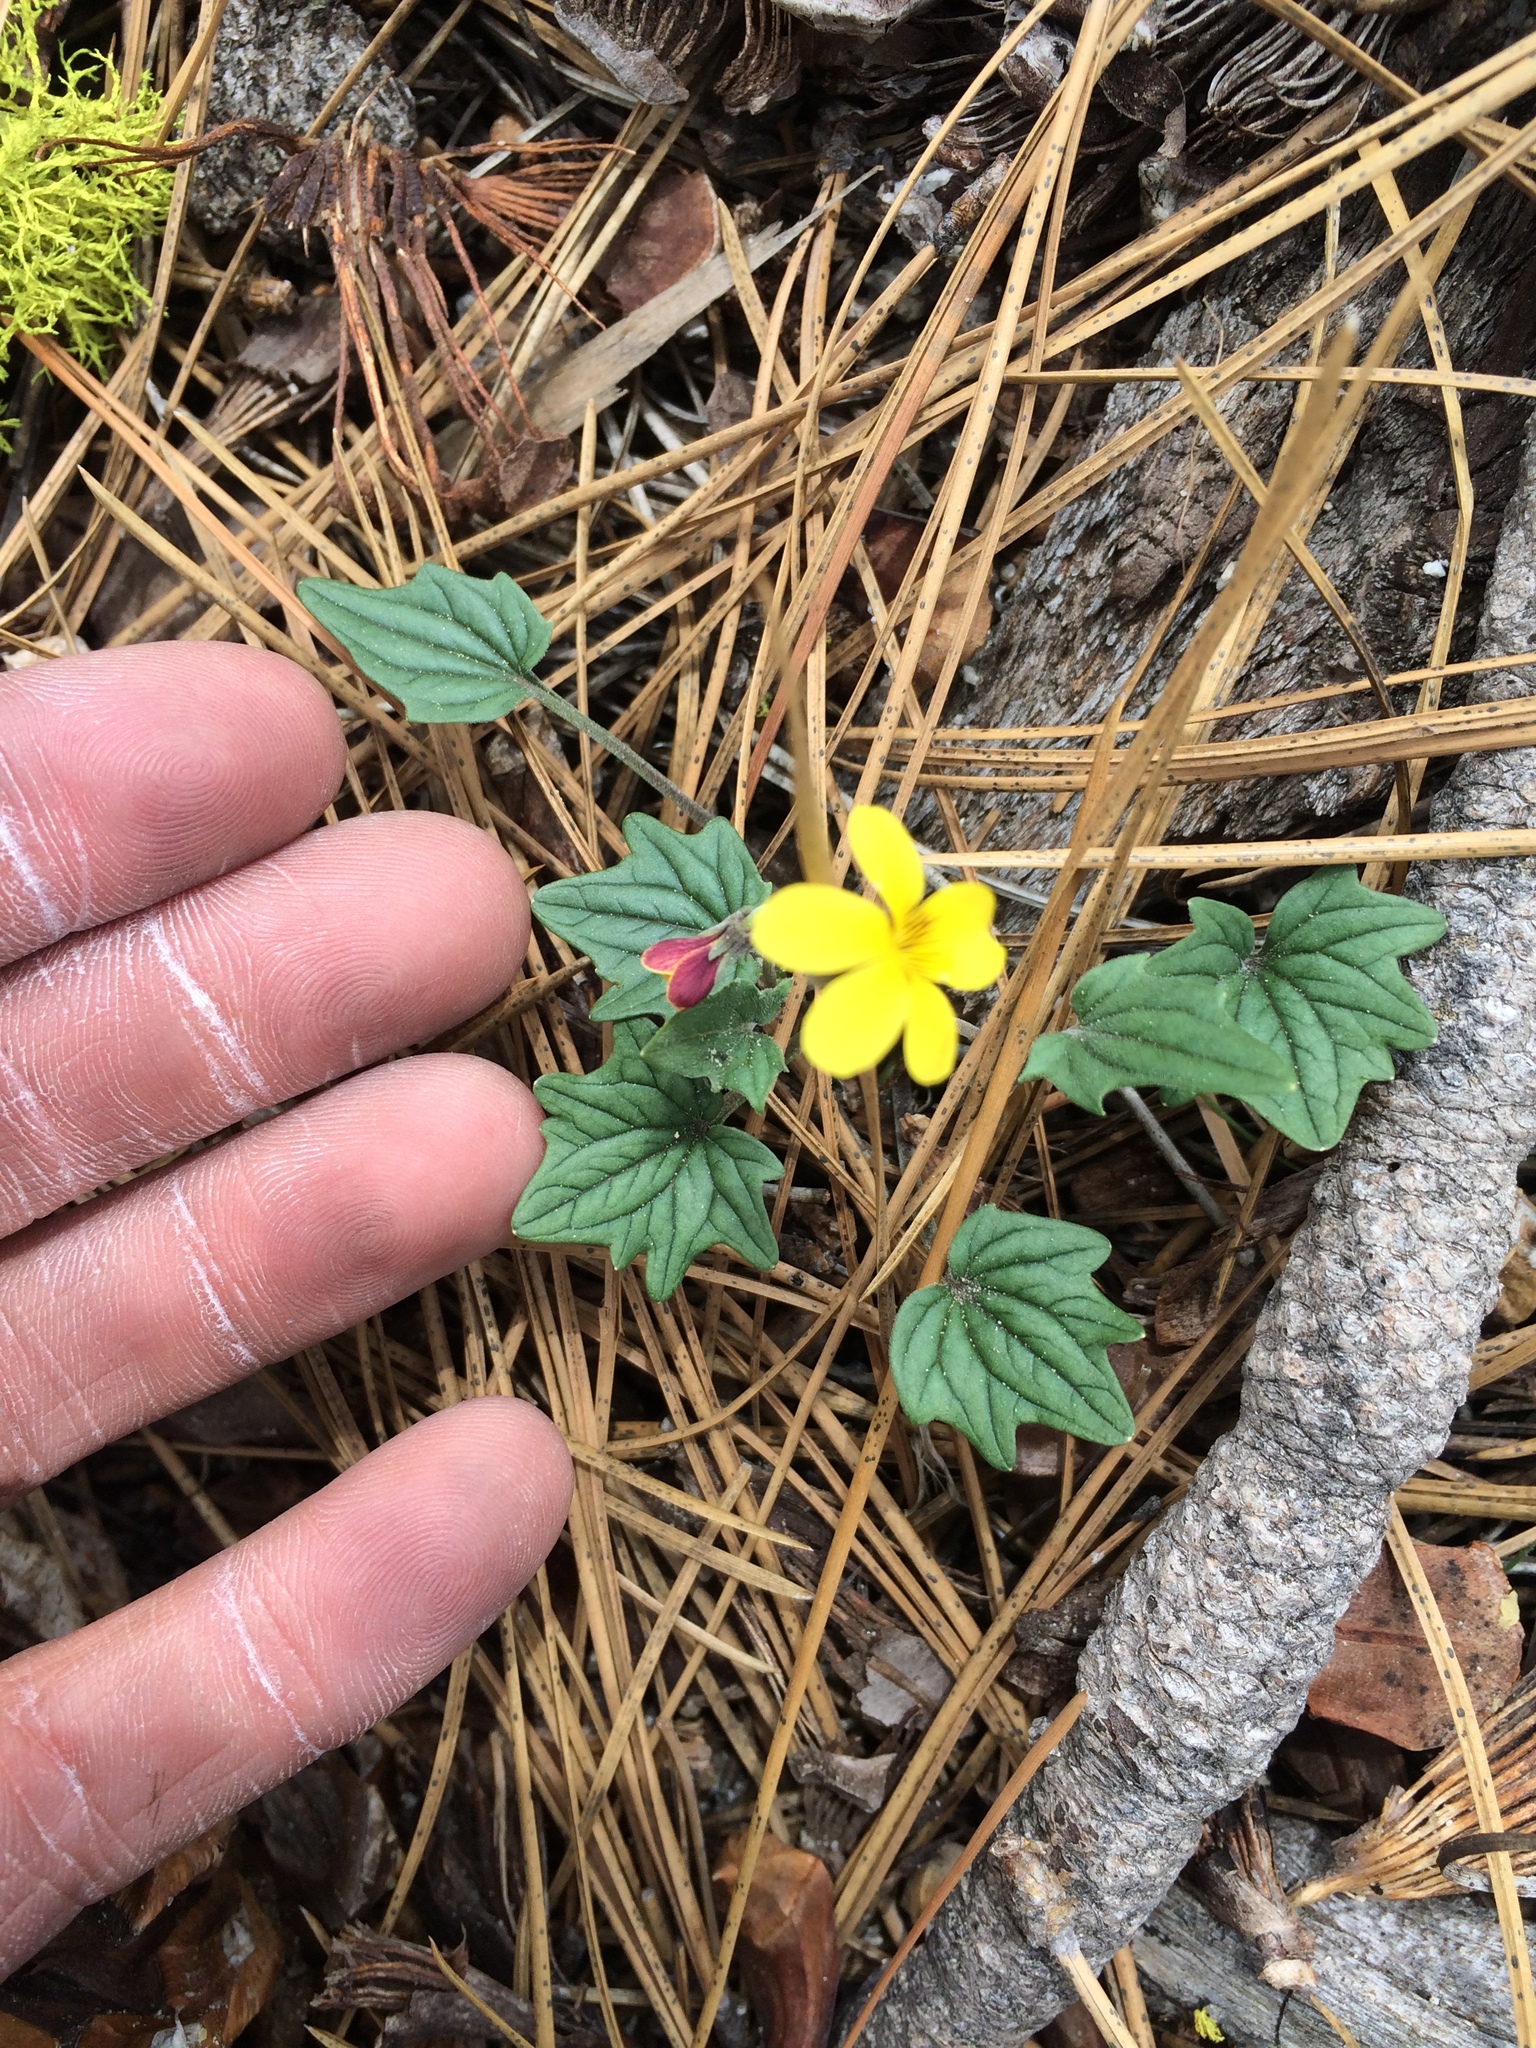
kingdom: Plantae
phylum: Tracheophyta
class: Magnoliopsida
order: Malpighiales
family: Violaceae
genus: Viola
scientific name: Viola purpurea
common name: Pine violet
